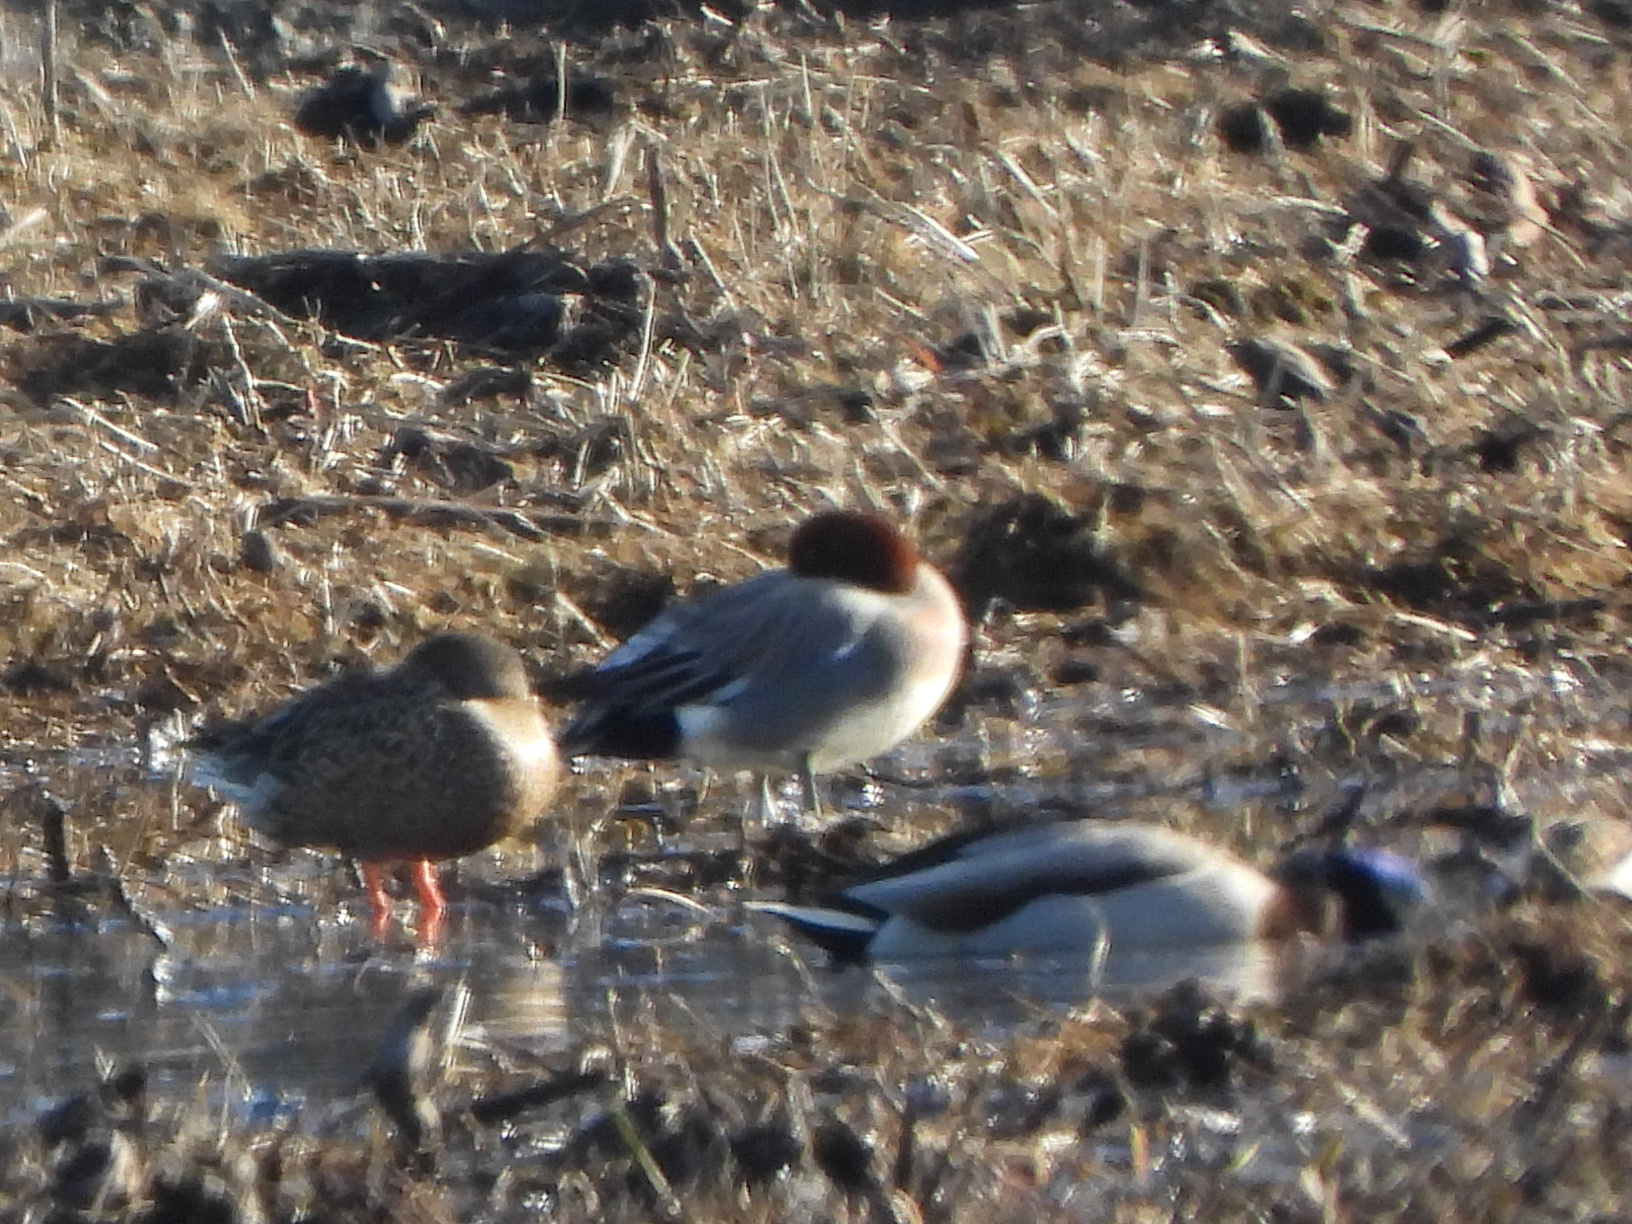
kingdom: Animalia
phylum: Chordata
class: Aves
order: Anseriformes
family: Anatidae
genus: Mareca
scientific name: Mareca penelope
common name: Eurasian wigeon
